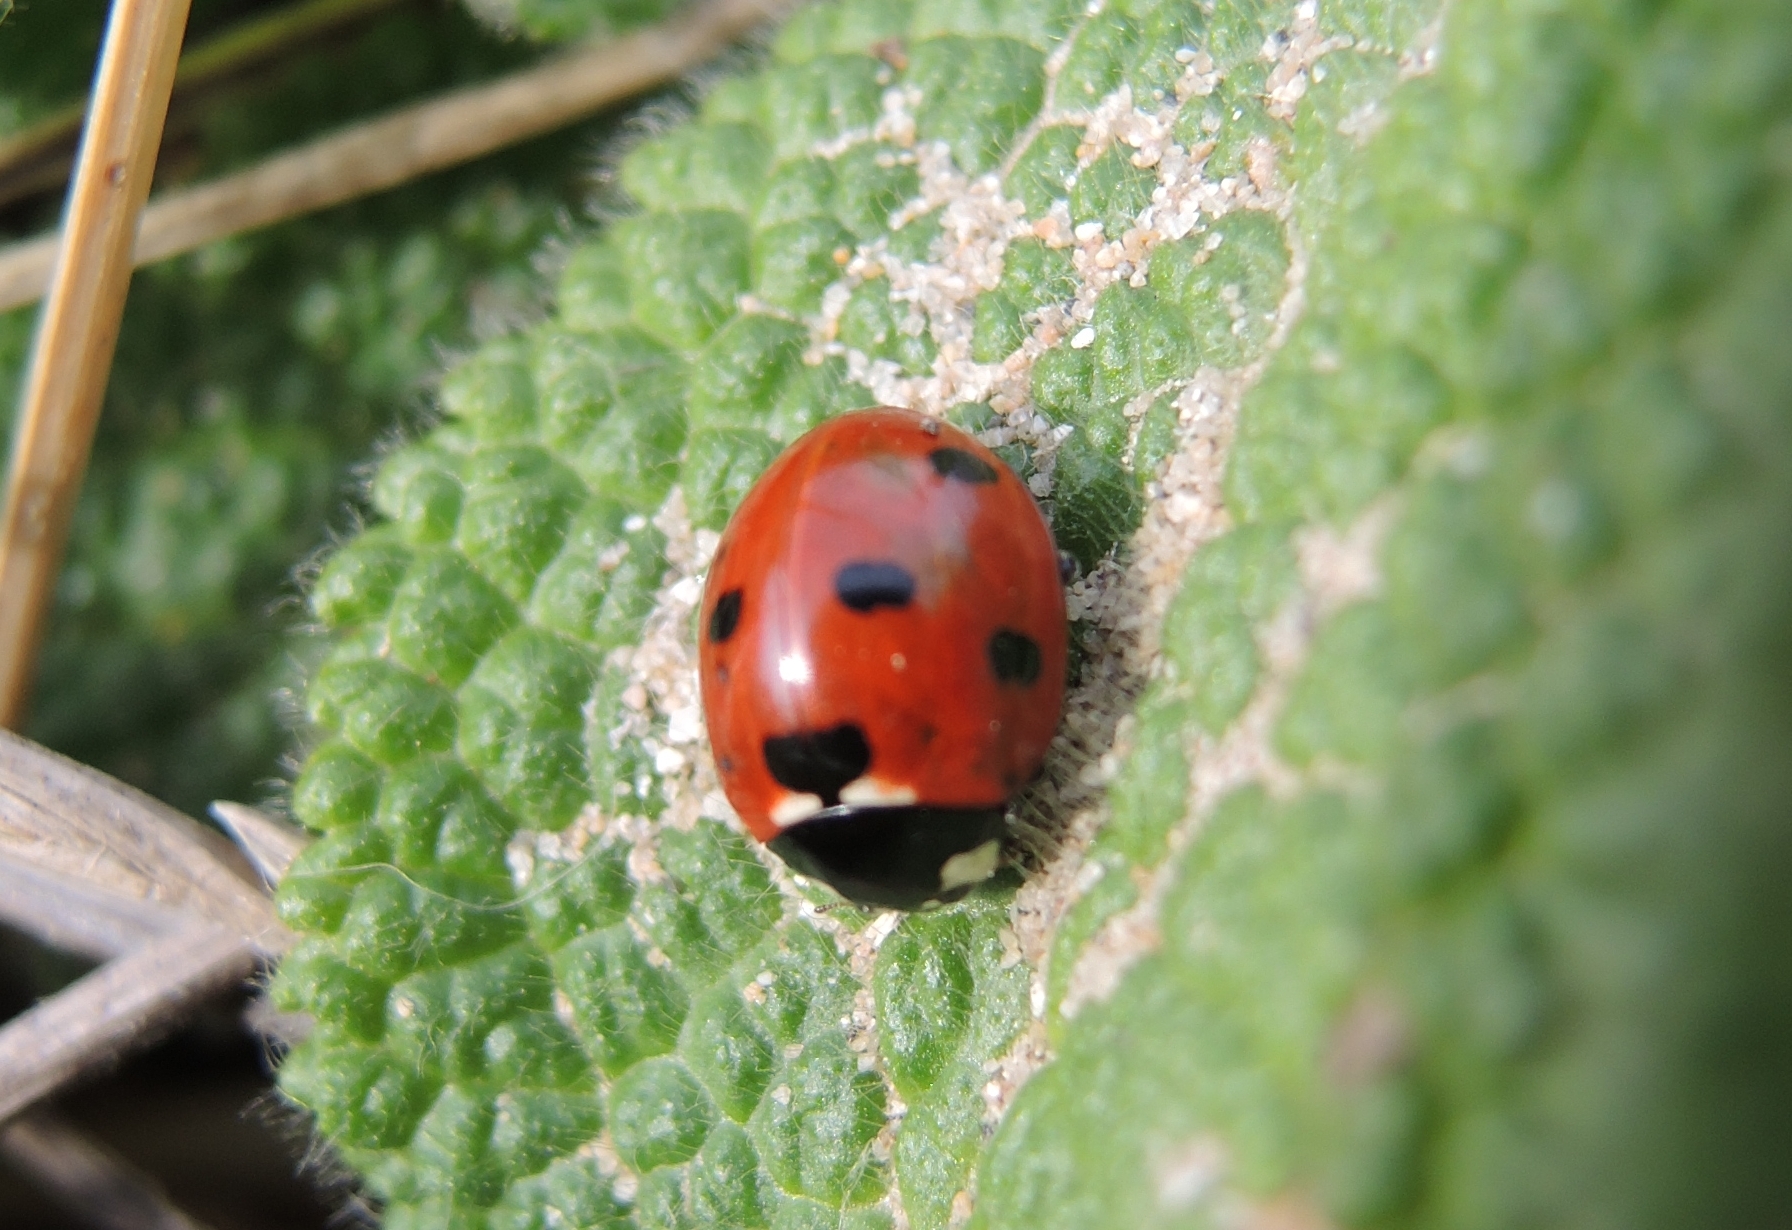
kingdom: Animalia
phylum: Arthropoda
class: Insecta
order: Coleoptera
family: Coccinellidae
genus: Coccinella
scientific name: Coccinella septempunctata
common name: Sevenspotted lady beetle
